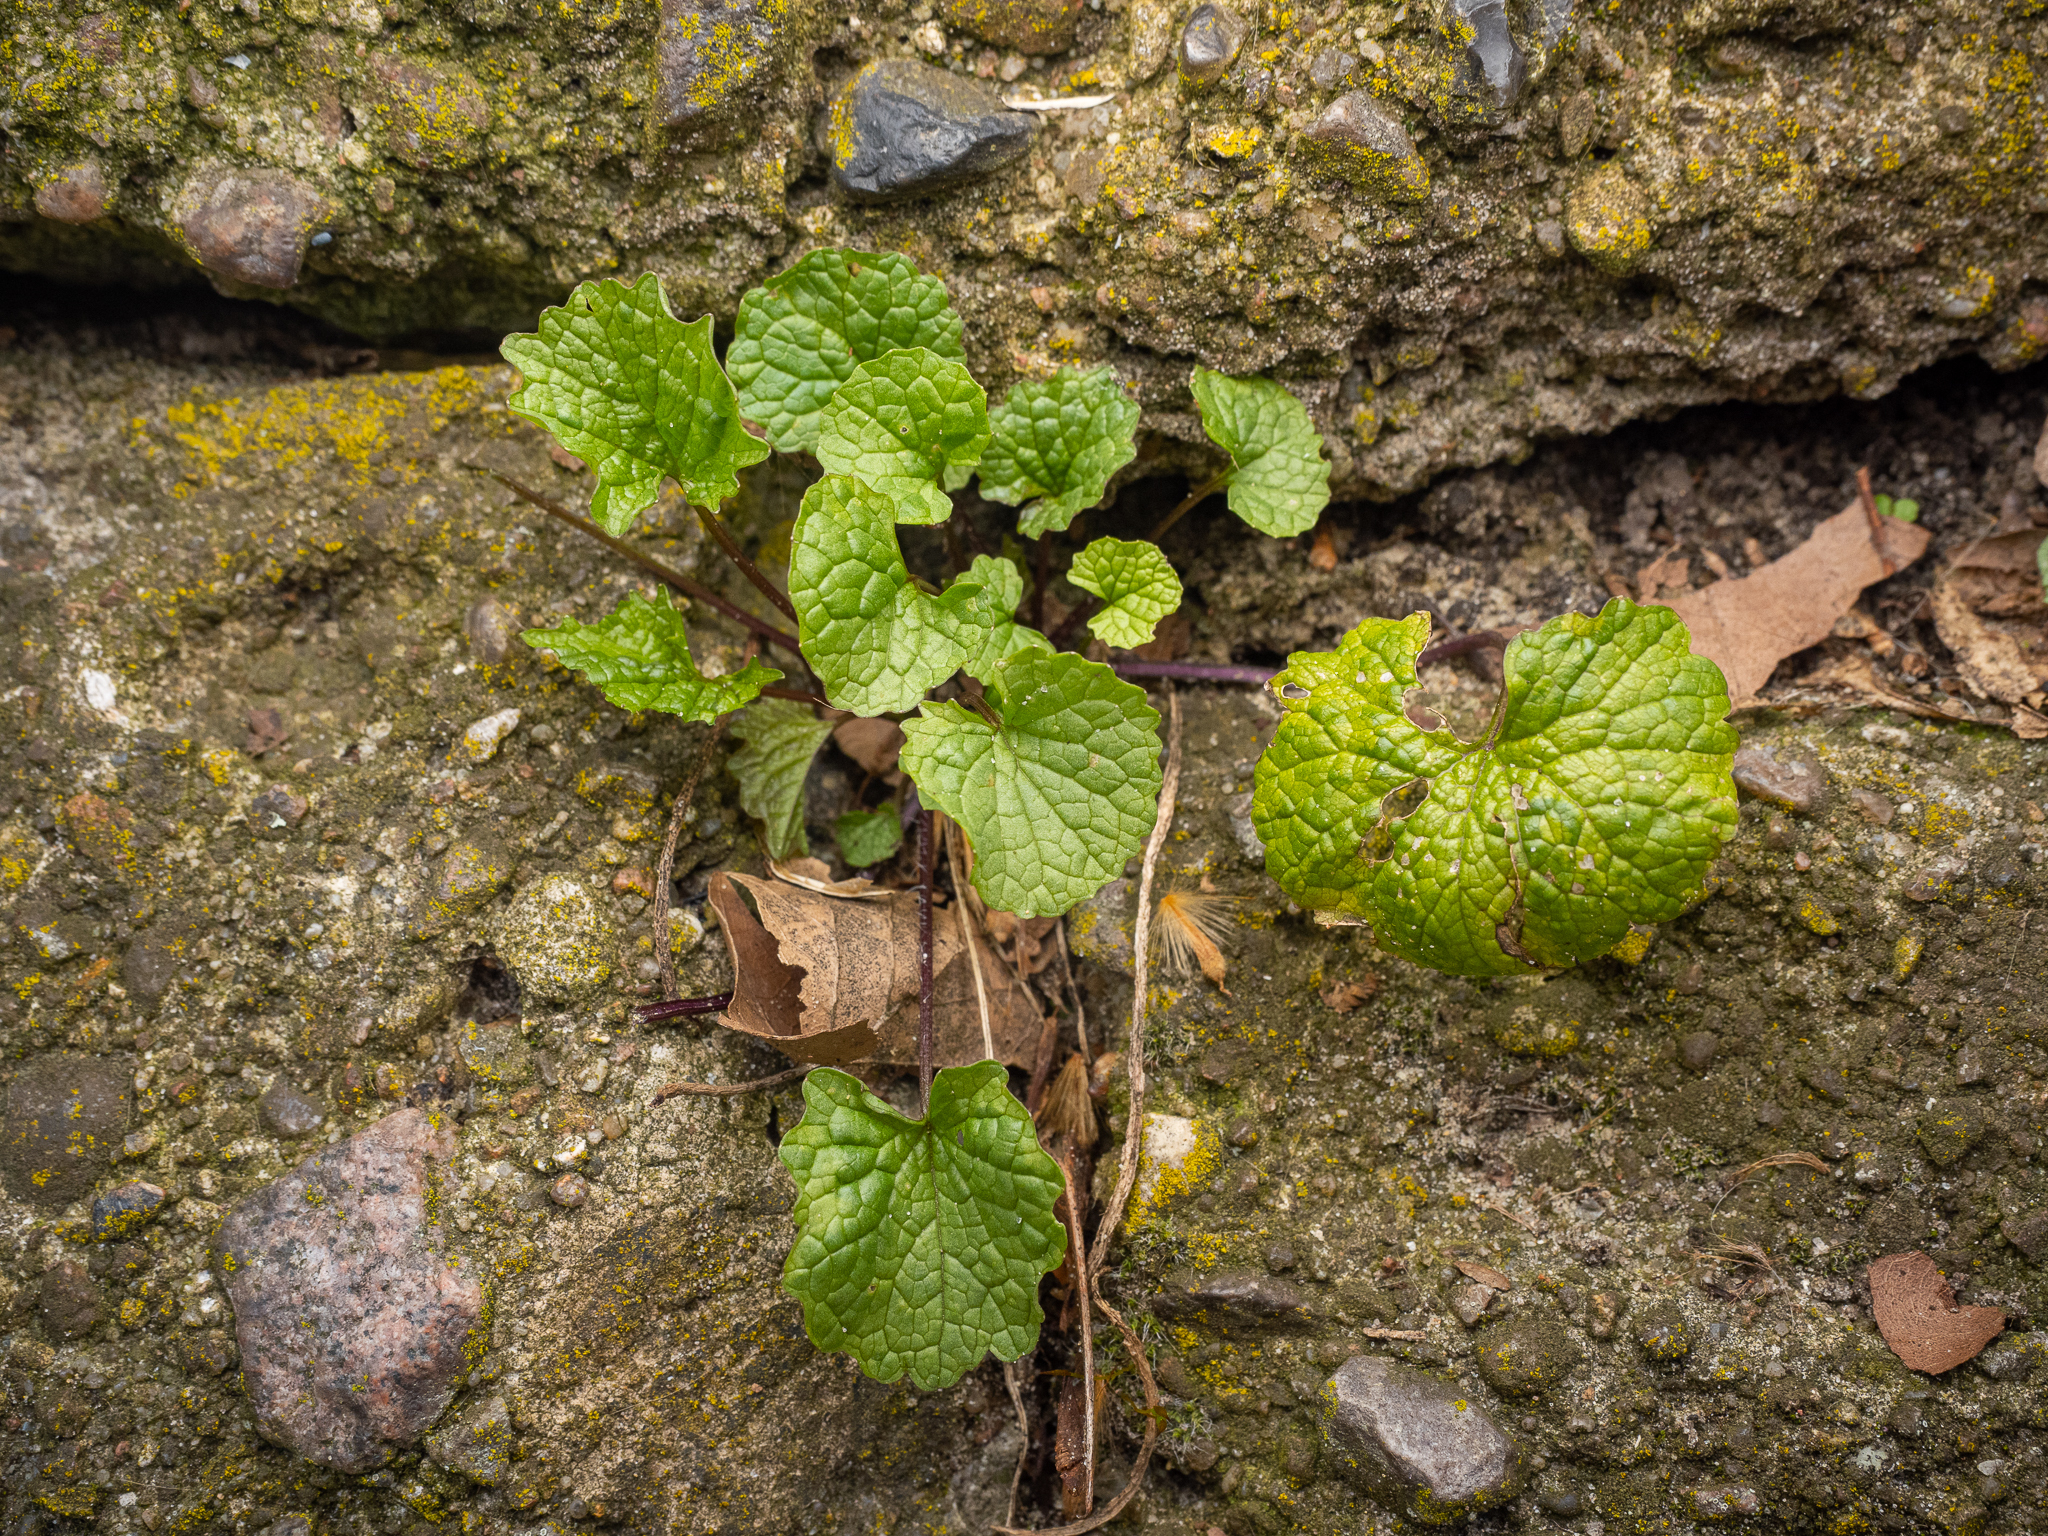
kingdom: Plantae
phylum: Tracheophyta
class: Magnoliopsida
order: Brassicales
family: Brassicaceae
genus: Alliaria
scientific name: Alliaria petiolata
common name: Garlic mustard
